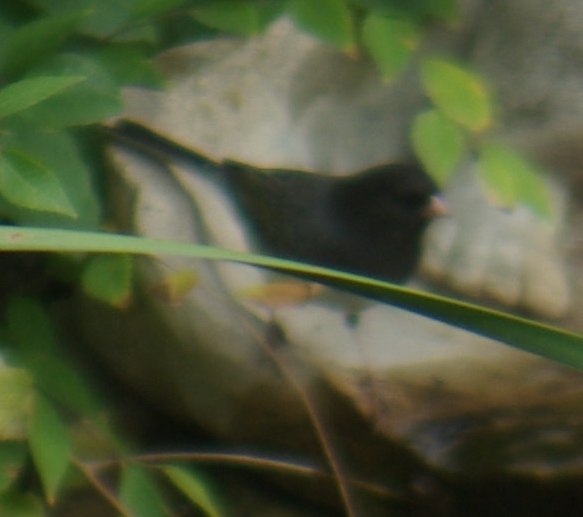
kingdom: Animalia
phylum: Chordata
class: Aves
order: Passeriformes
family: Passerellidae
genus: Junco
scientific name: Junco hyemalis
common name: Dark-eyed junco
